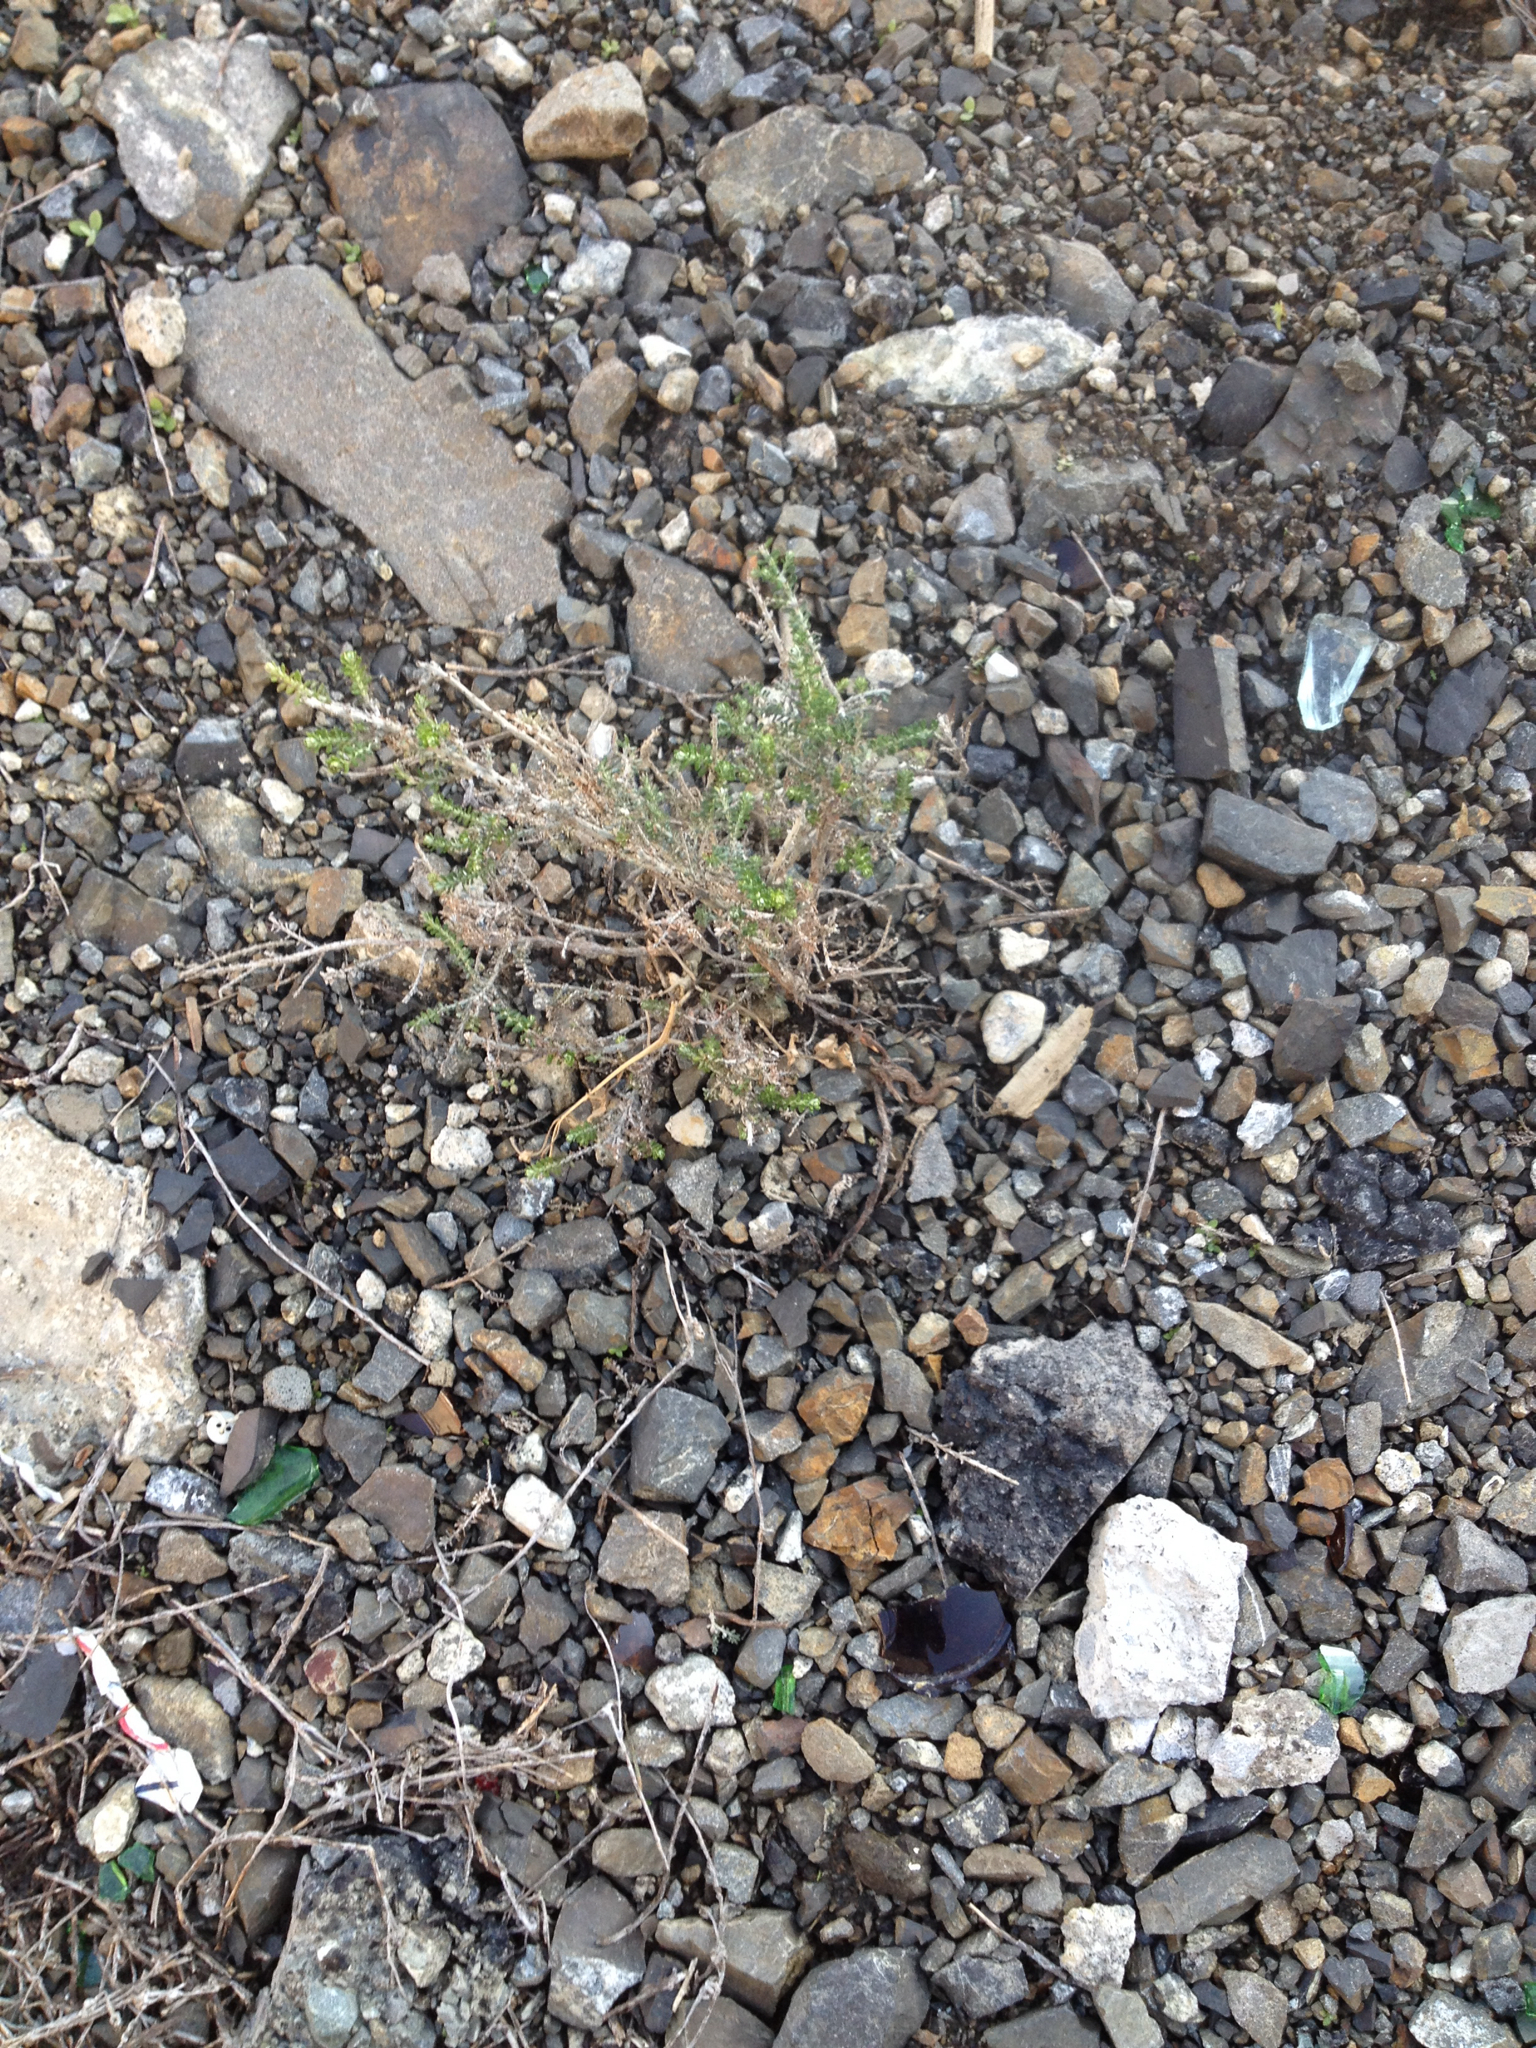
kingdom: Plantae
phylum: Tracheophyta
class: Magnoliopsida
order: Asterales
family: Asteraceae
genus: Ozothamnus
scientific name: Ozothamnus leptophyllus
